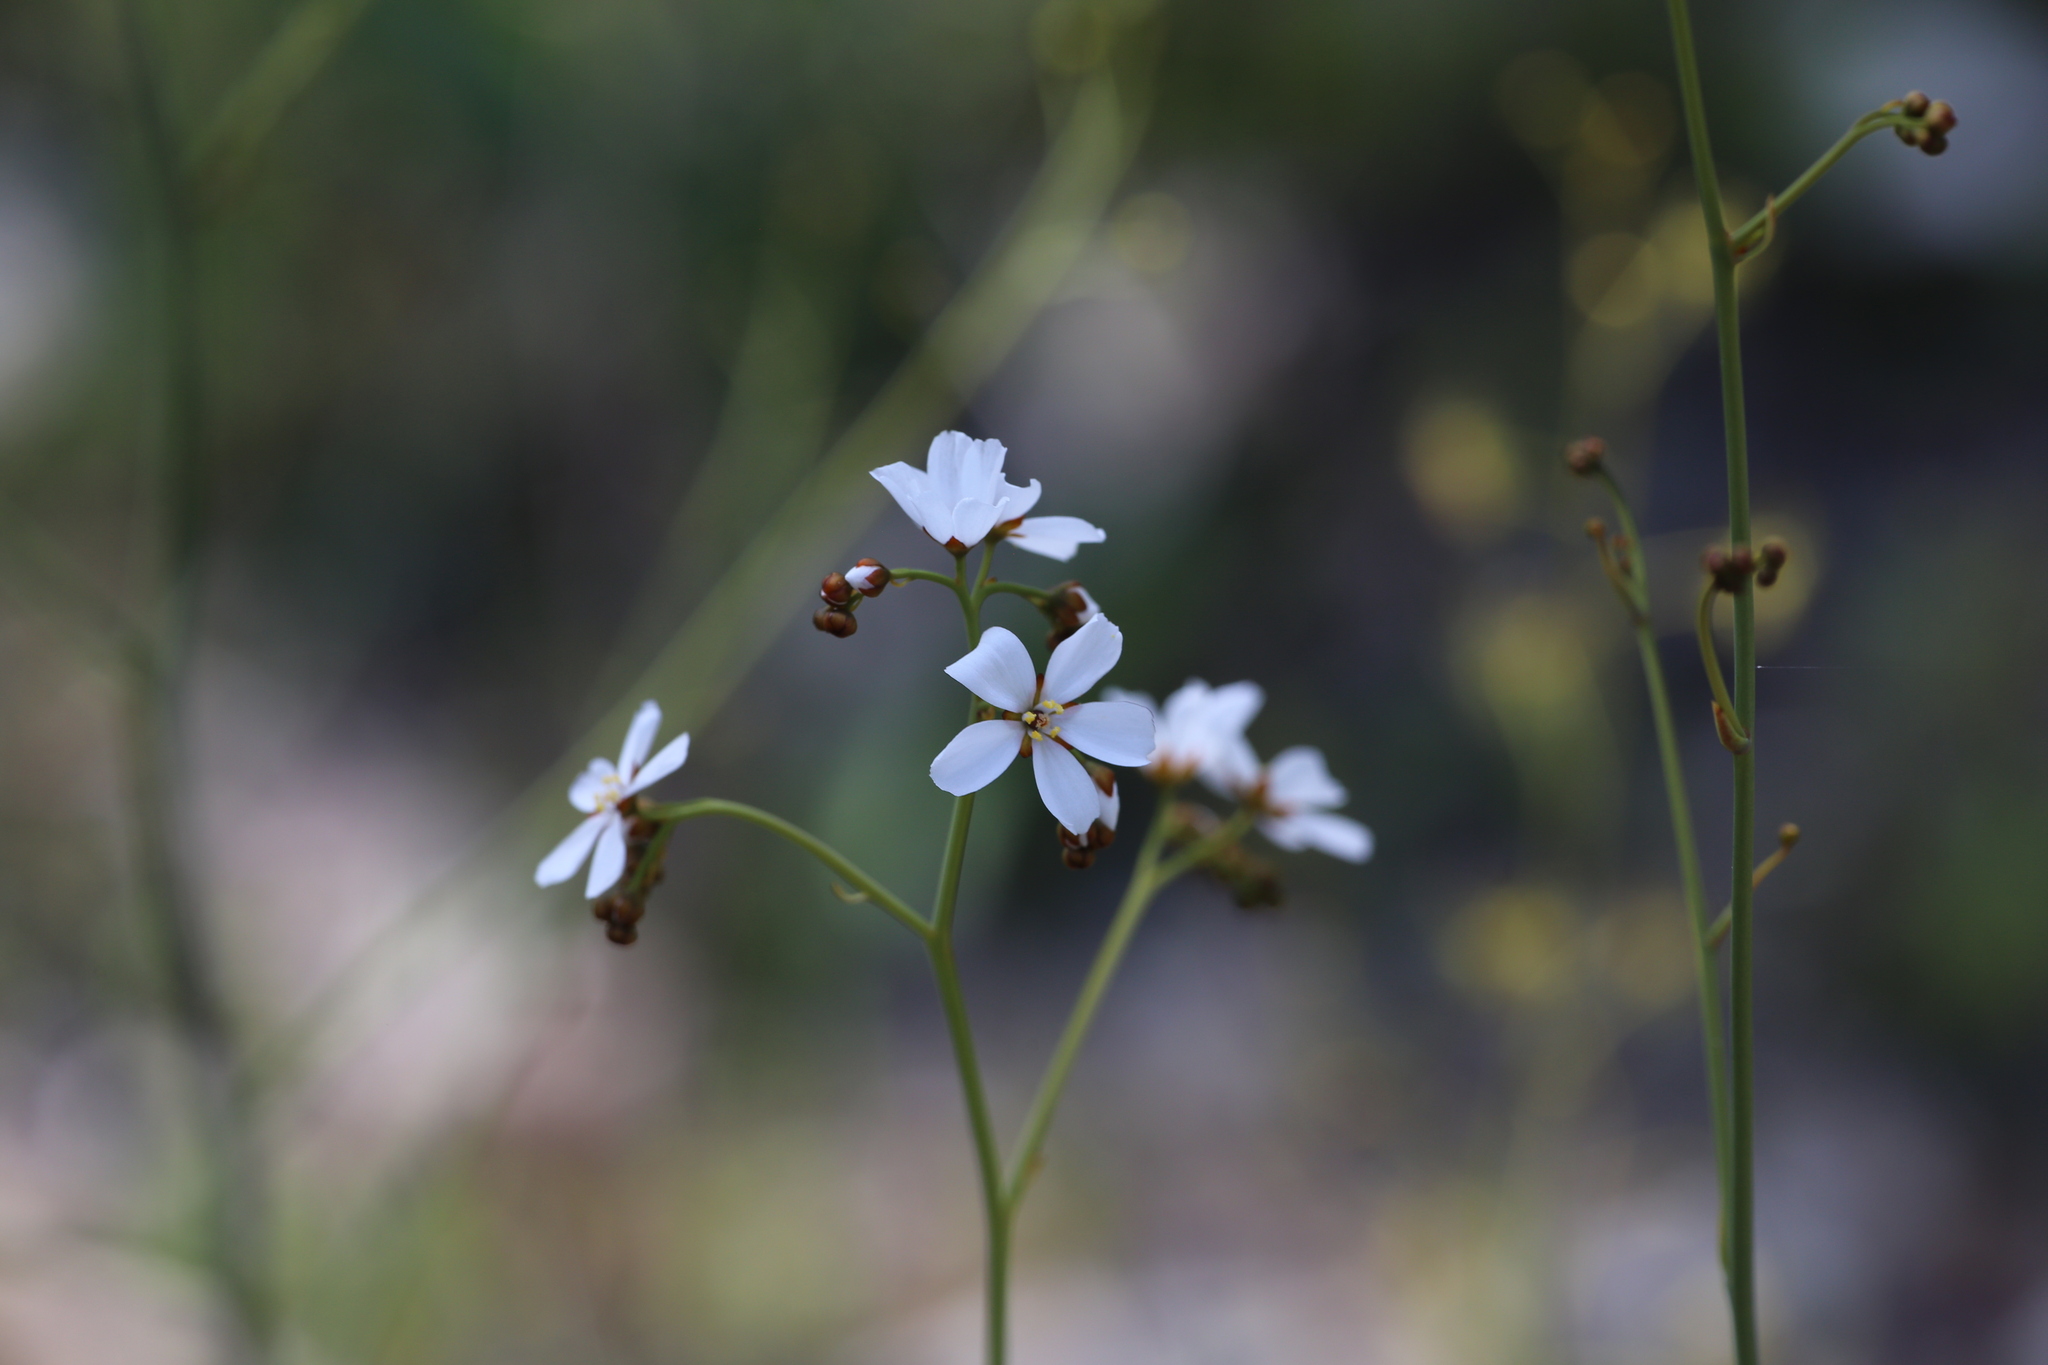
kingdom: Plantae
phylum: Tracheophyta
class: Magnoliopsida
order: Caryophyllales
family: Droseraceae
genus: Drosera
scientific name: Drosera gigantea
